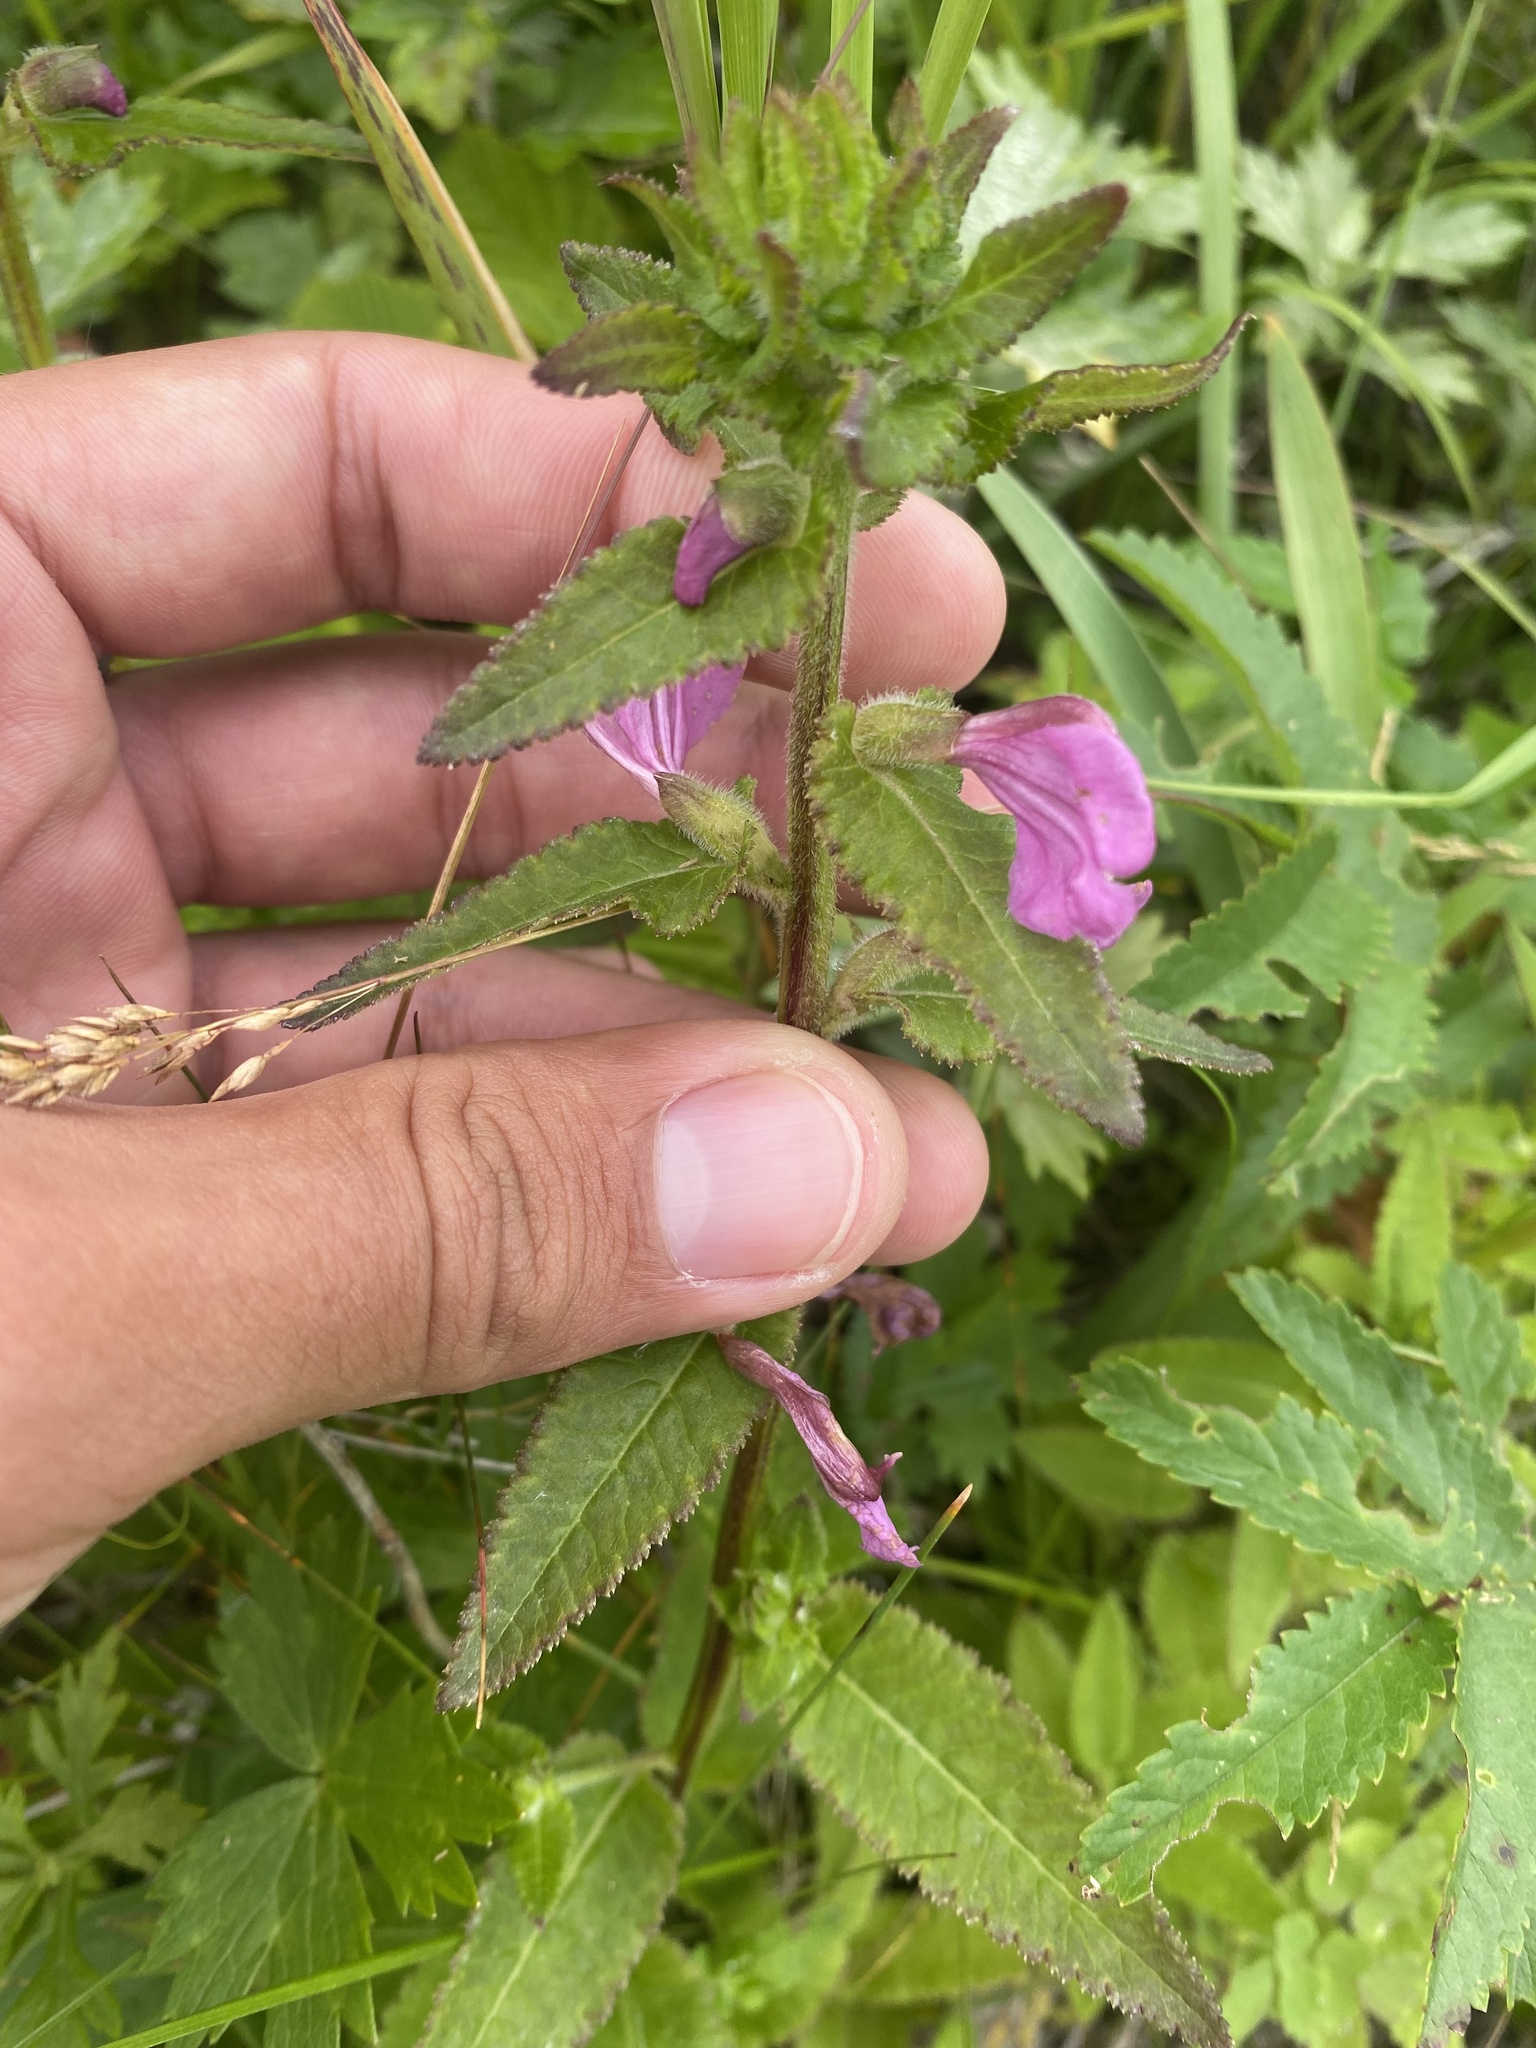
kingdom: Plantae
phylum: Tracheophyta
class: Magnoliopsida
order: Lamiales
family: Orobanchaceae
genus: Pedicularis
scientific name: Pedicularis resupinata
